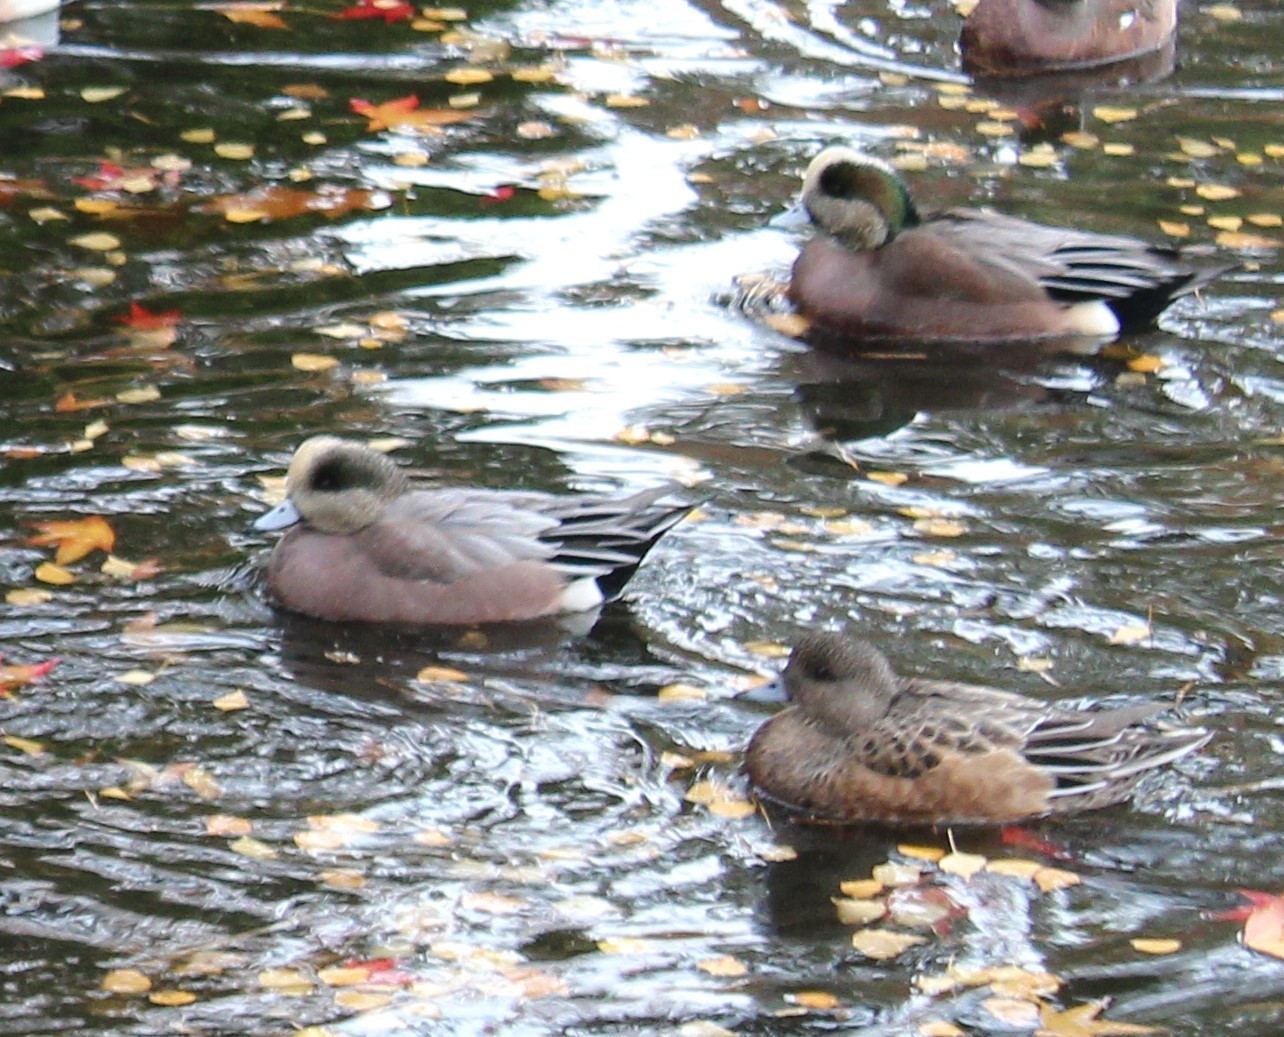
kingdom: Animalia
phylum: Chordata
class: Aves
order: Anseriformes
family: Anatidae
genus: Mareca
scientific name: Mareca americana
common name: American wigeon
